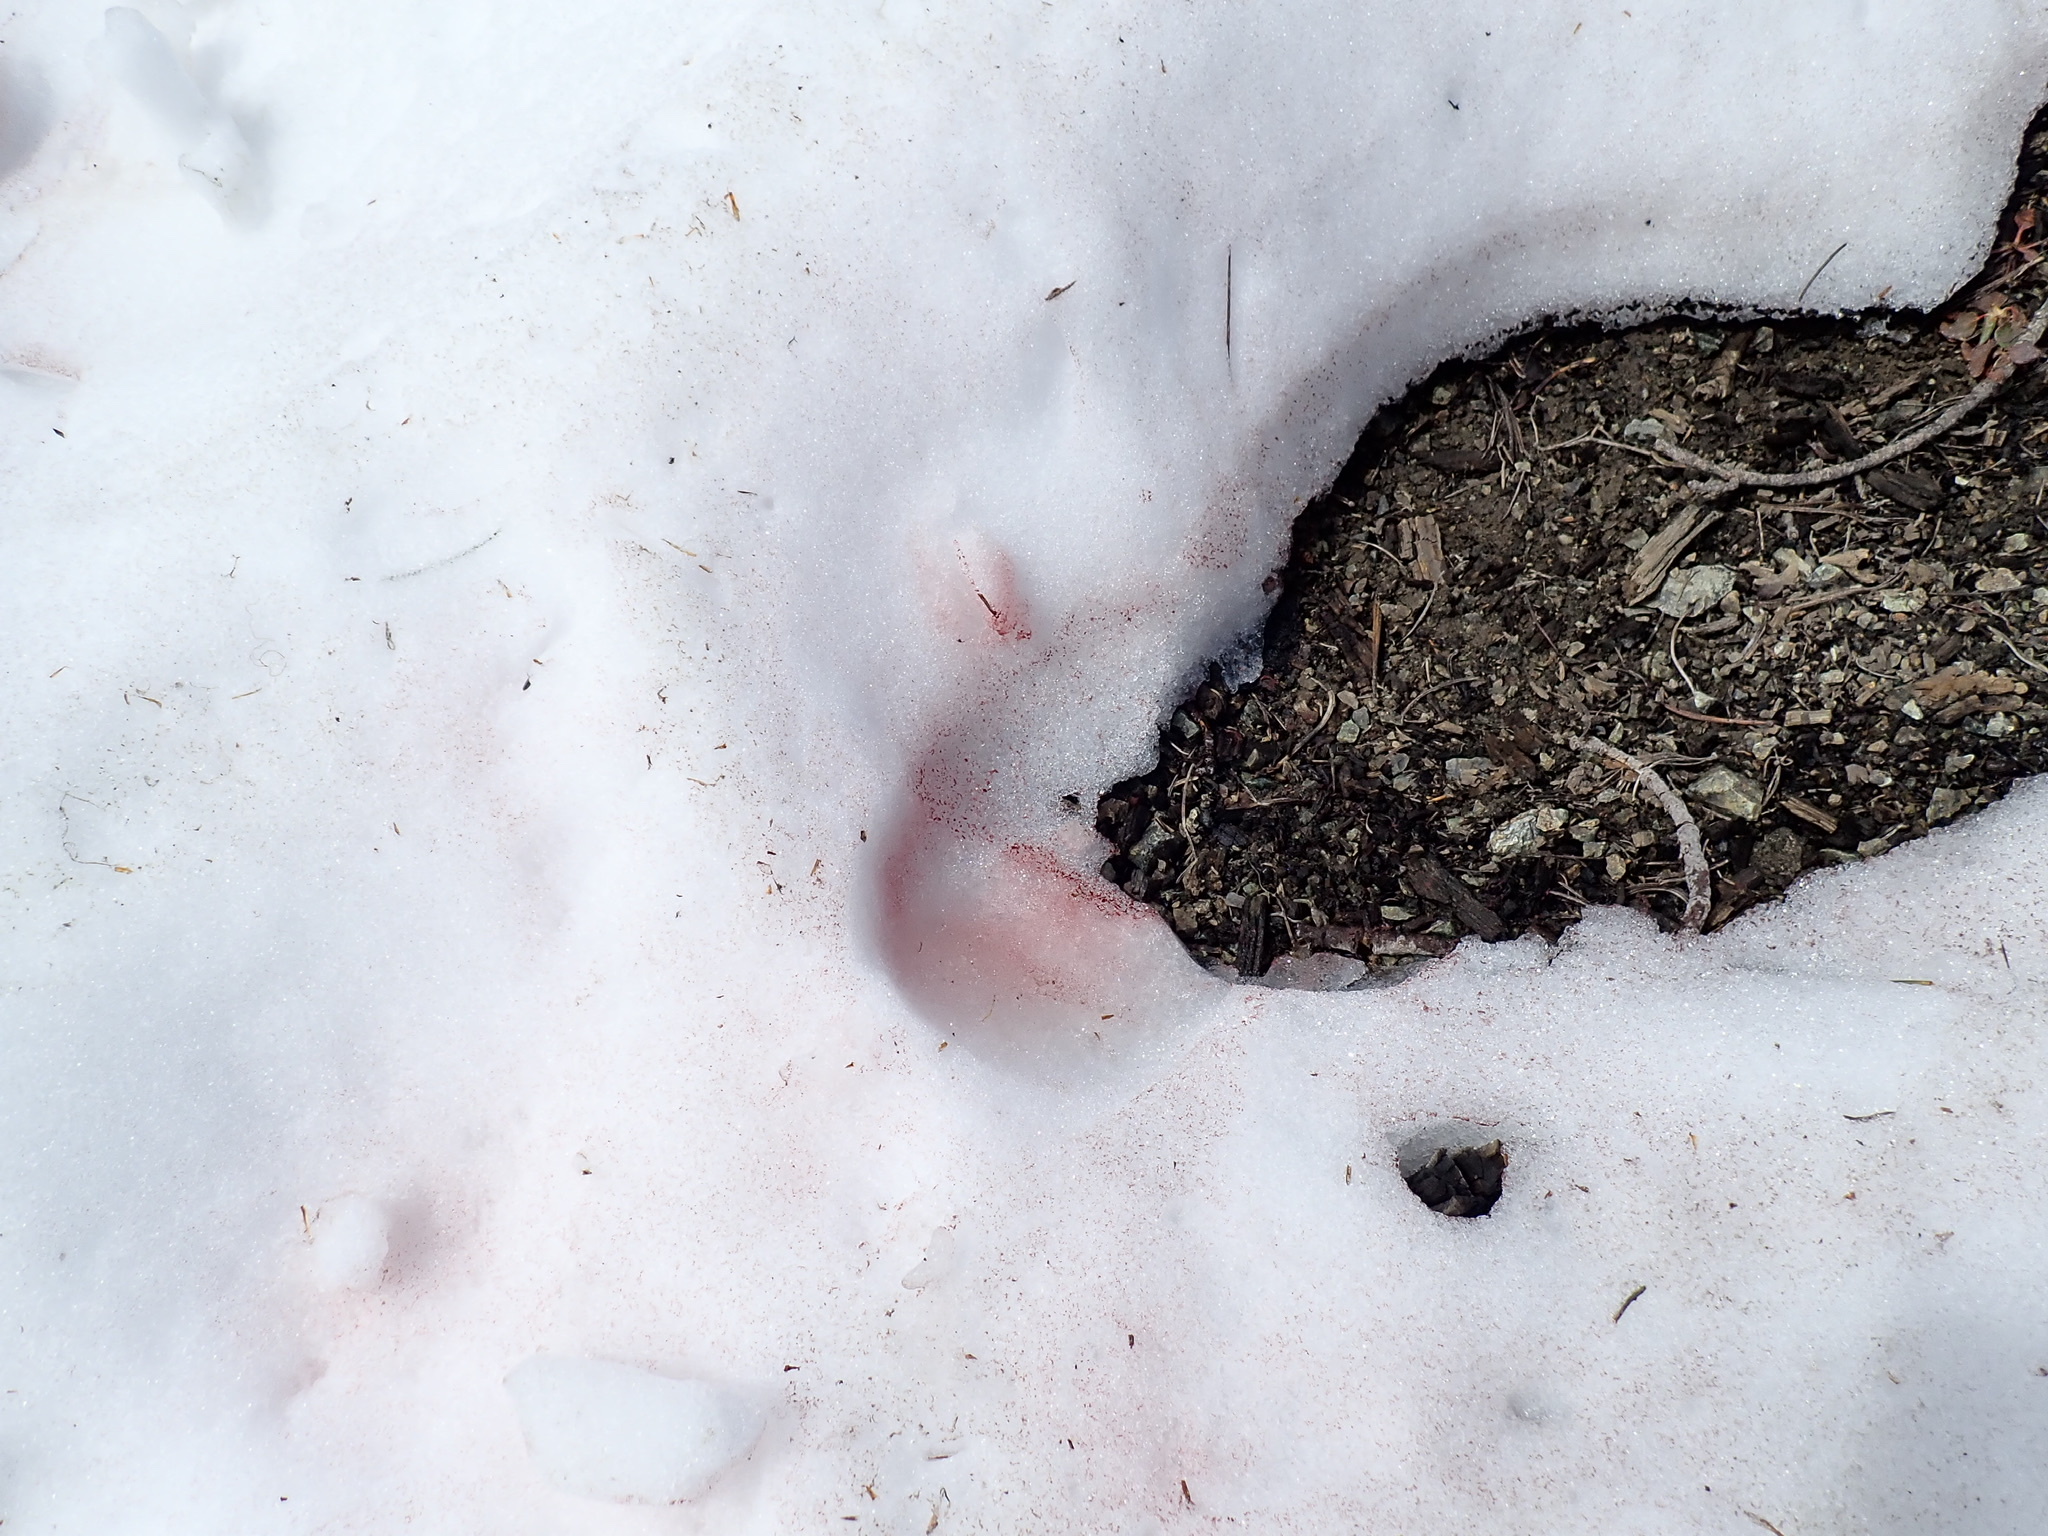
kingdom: Plantae
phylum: Chlorophyta
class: Chlorophyceae
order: Volvocales
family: Chlamydomonadaceae
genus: Chlamydomonas
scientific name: Chlamydomonas nivalis
